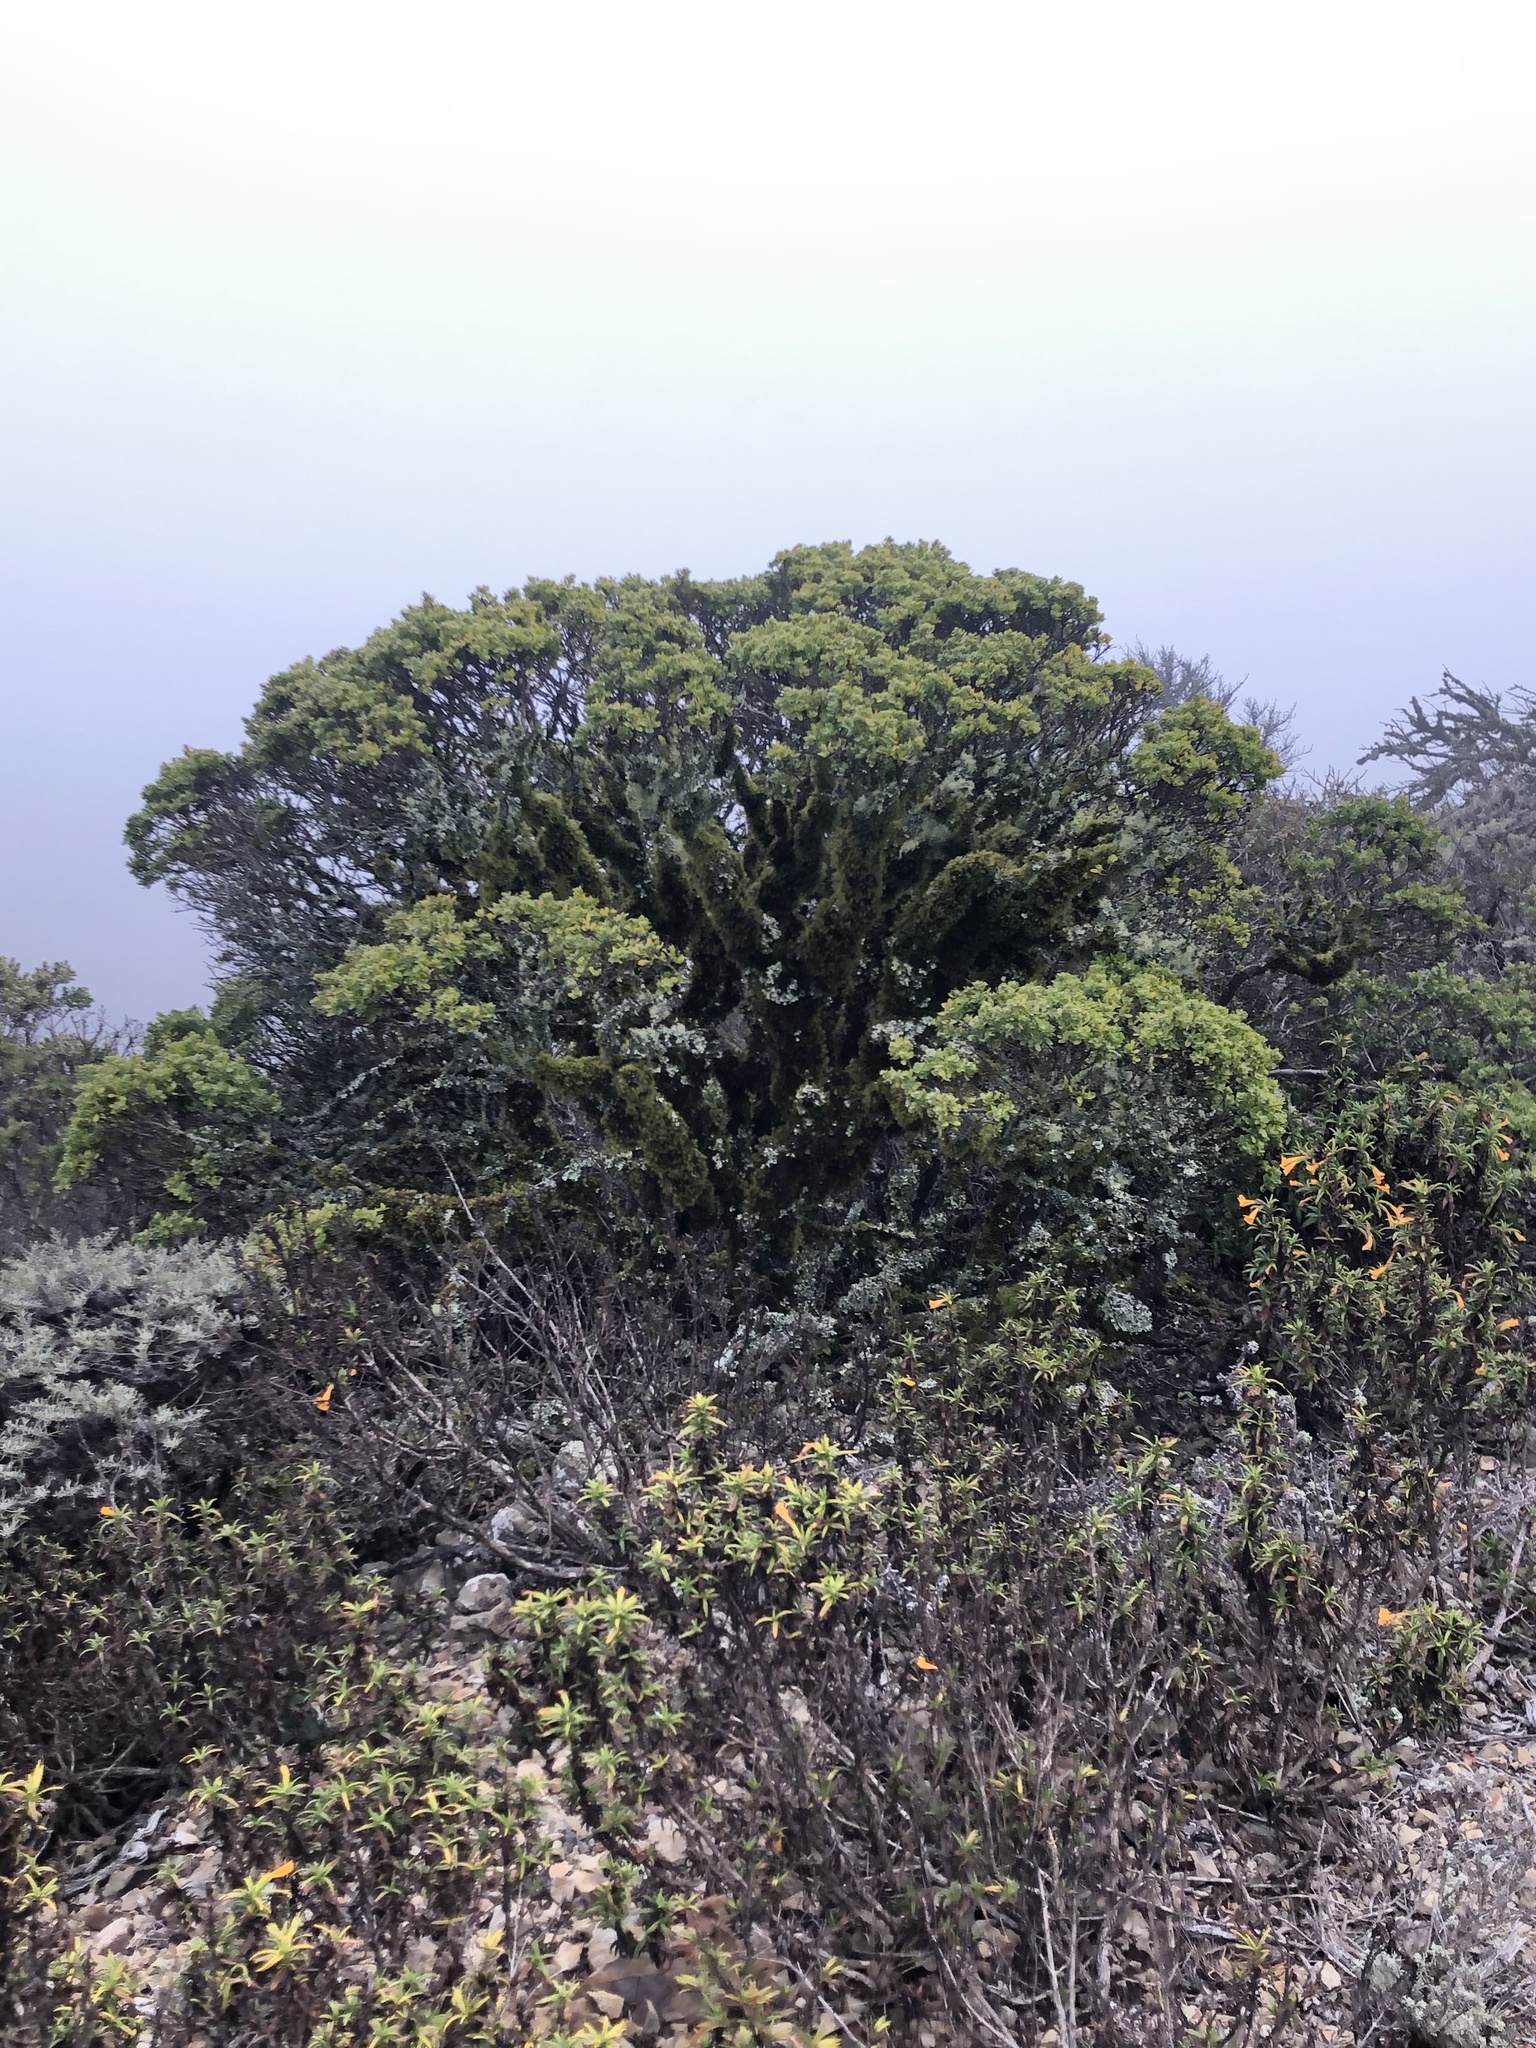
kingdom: Plantae
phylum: Tracheophyta
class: Magnoliopsida
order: Asterales
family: Asteraceae
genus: Baccharis
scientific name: Baccharis pilularis
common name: Coyotebrush
